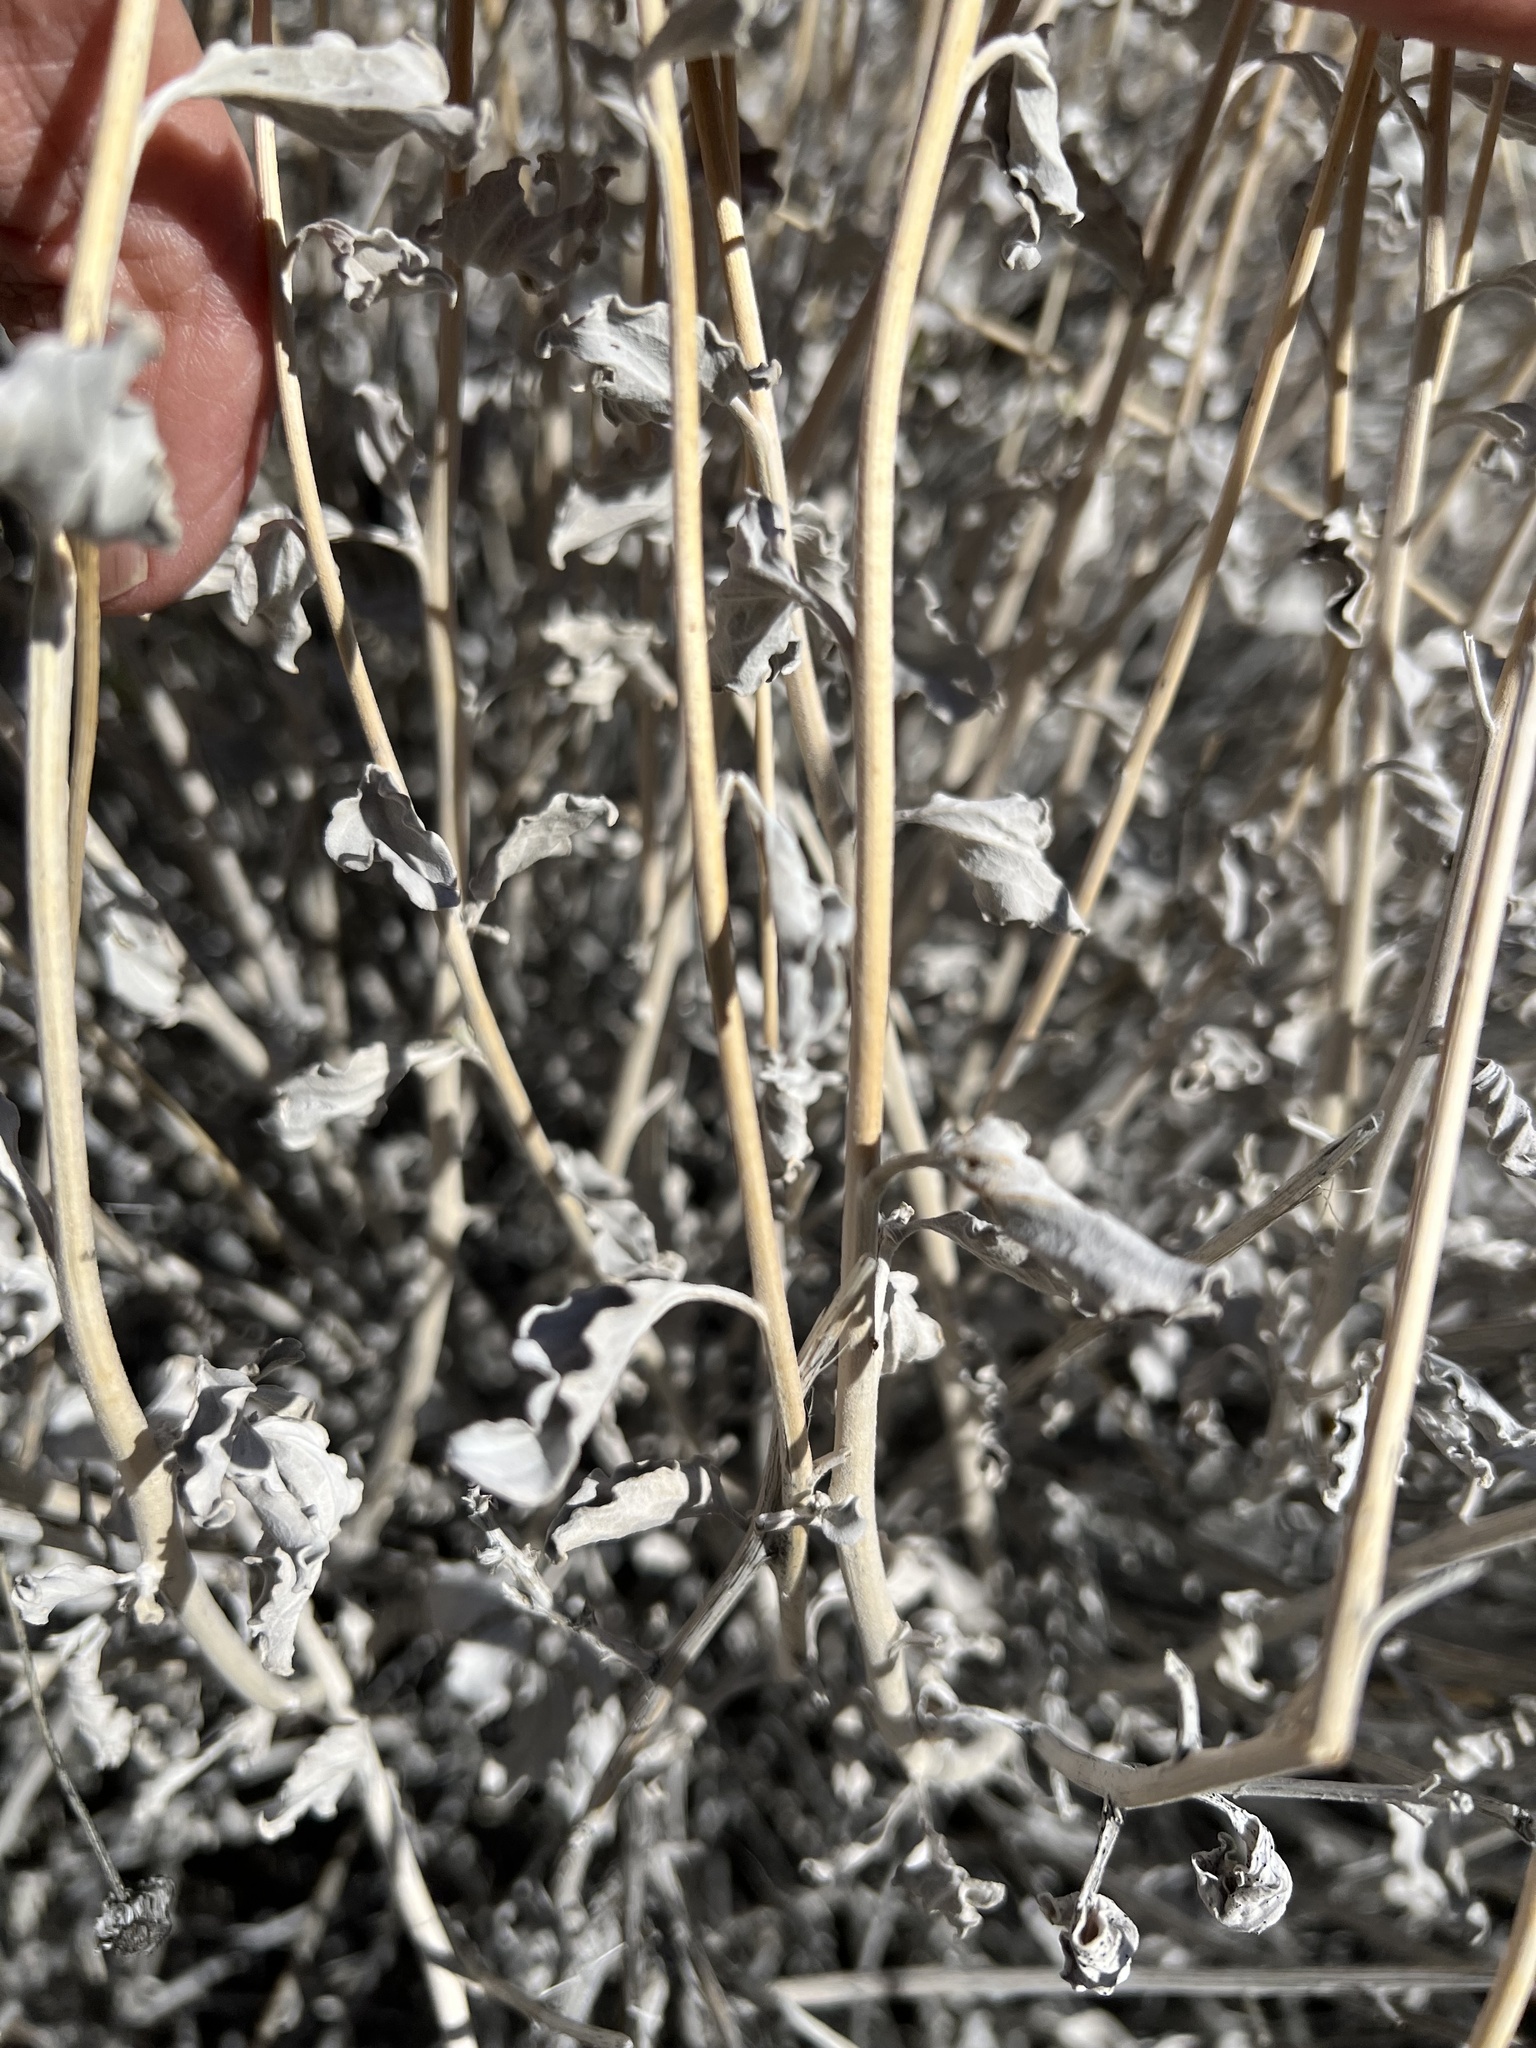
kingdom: Plantae
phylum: Tracheophyta
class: Magnoliopsida
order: Asterales
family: Asteraceae
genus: Encelia
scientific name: Encelia actoni
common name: Acton encelia
